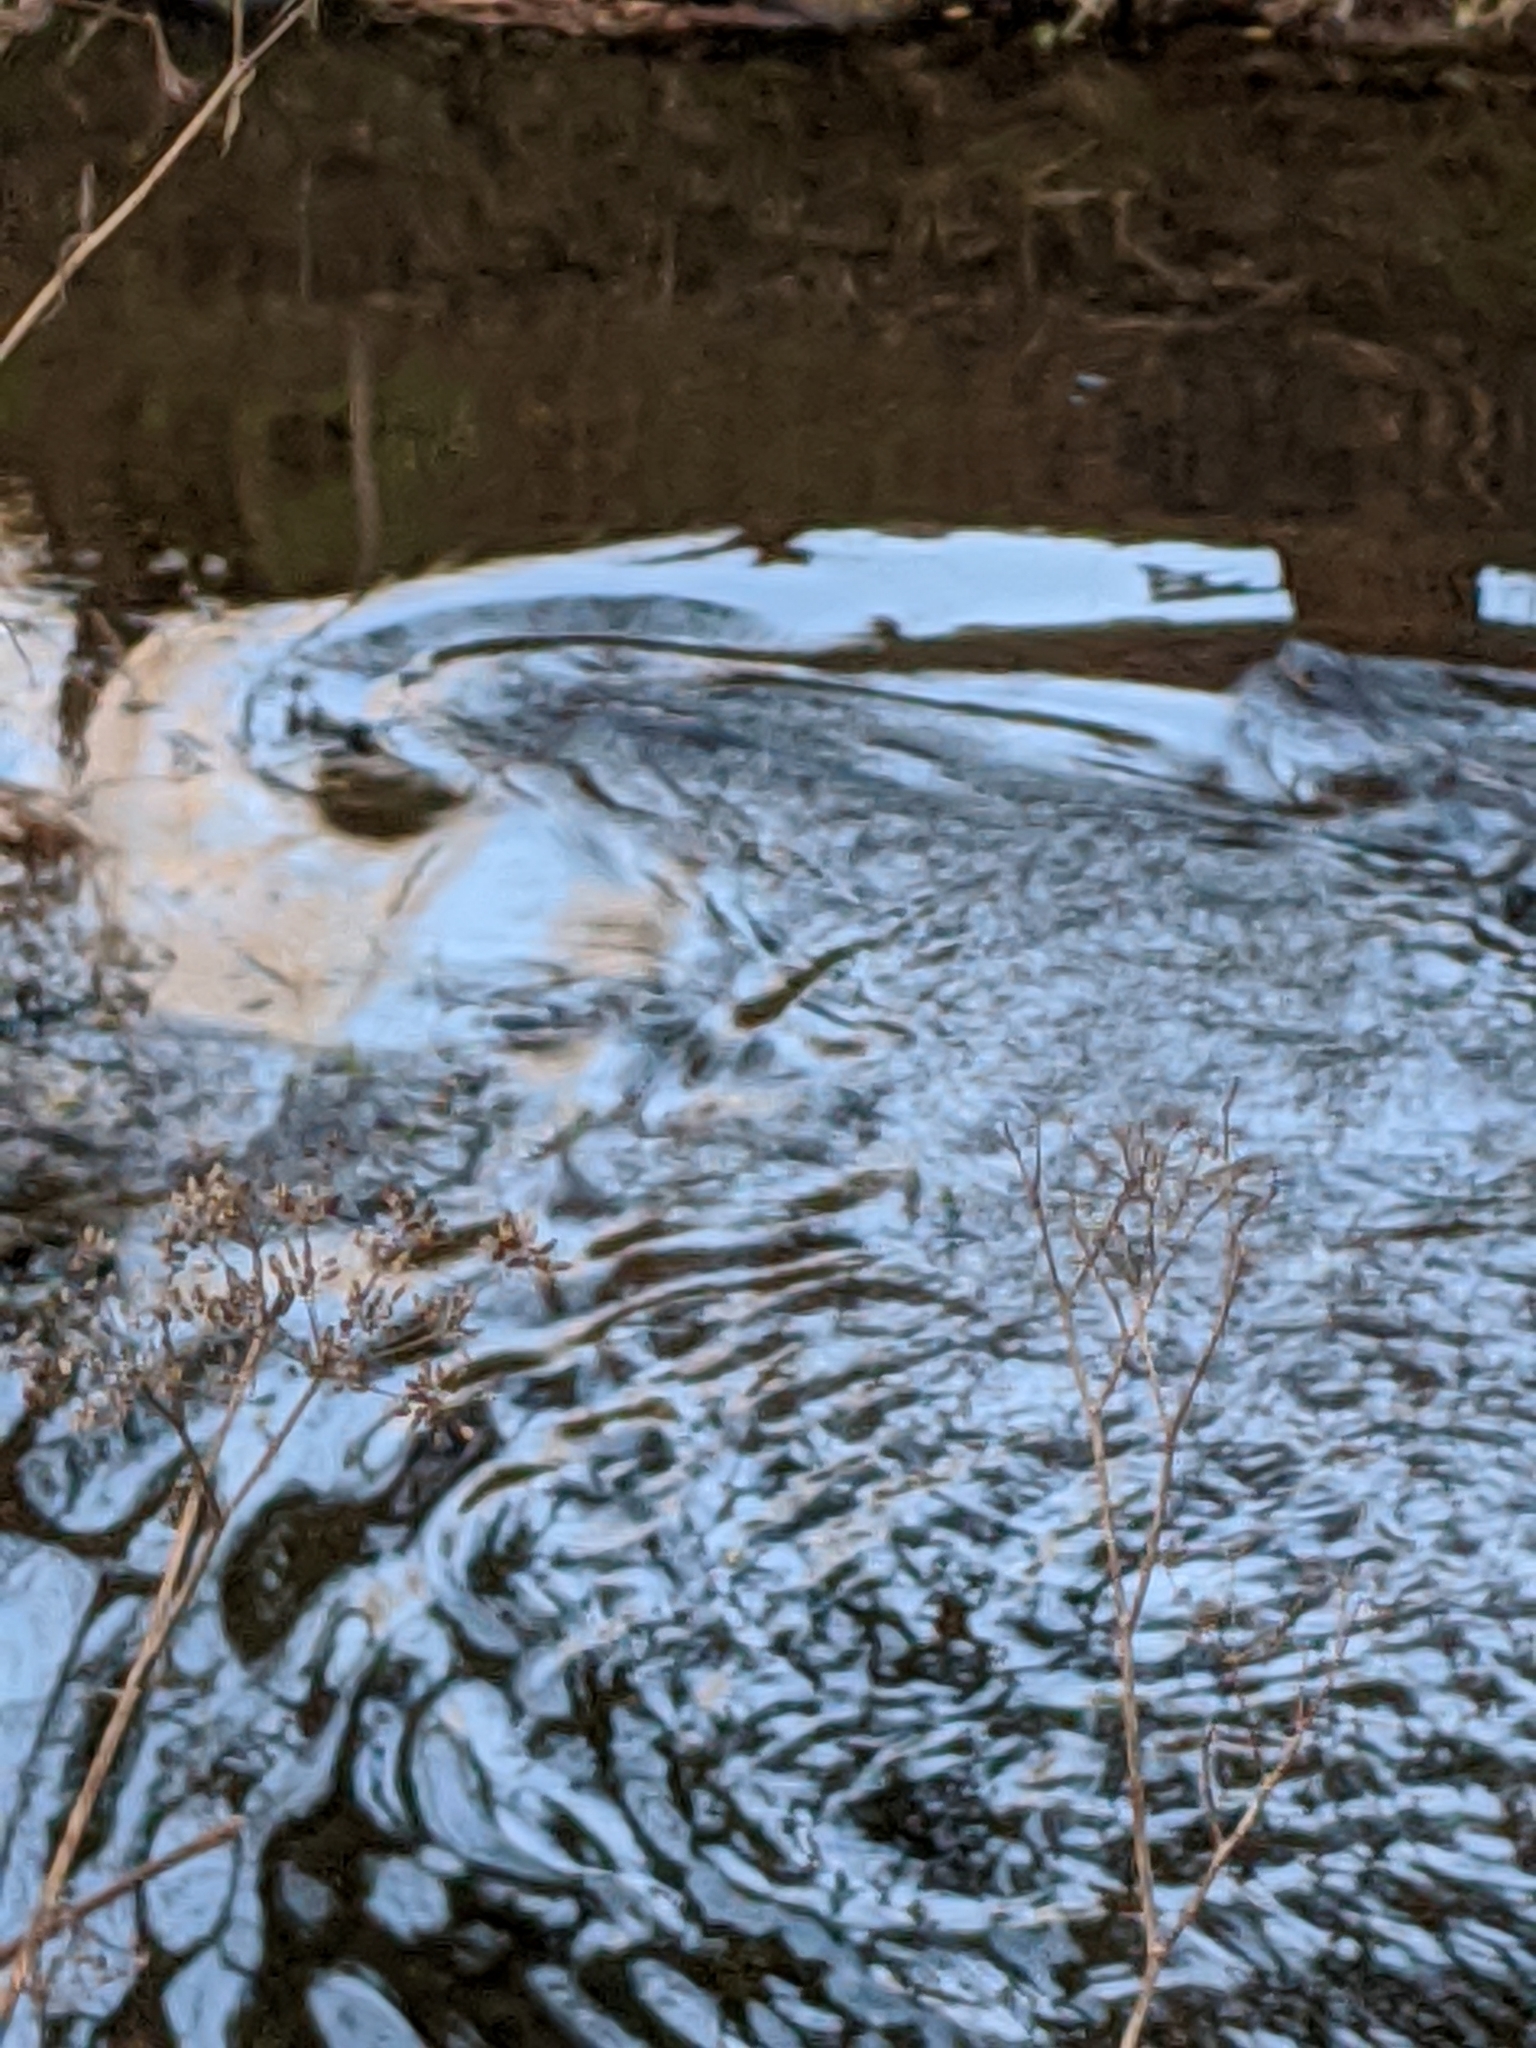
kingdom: Animalia
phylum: Chordata
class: Mammalia
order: Carnivora
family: Mustelidae
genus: Lontra
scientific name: Lontra canadensis
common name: North american river otter
